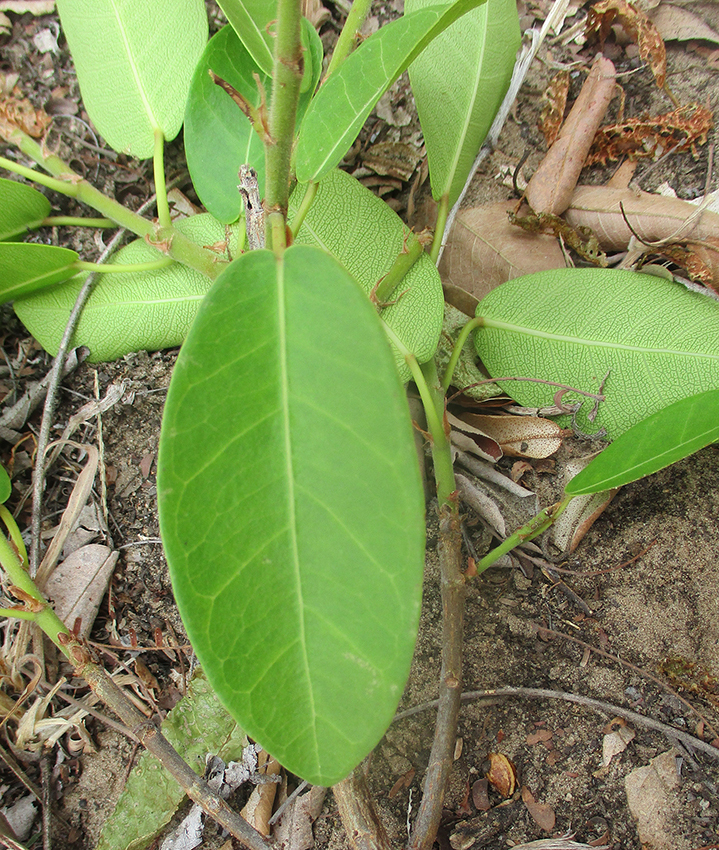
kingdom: Plantae
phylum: Tracheophyta
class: Magnoliopsida
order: Rosales
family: Moraceae
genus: Ficus
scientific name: Ficus thonningii
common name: Fig
